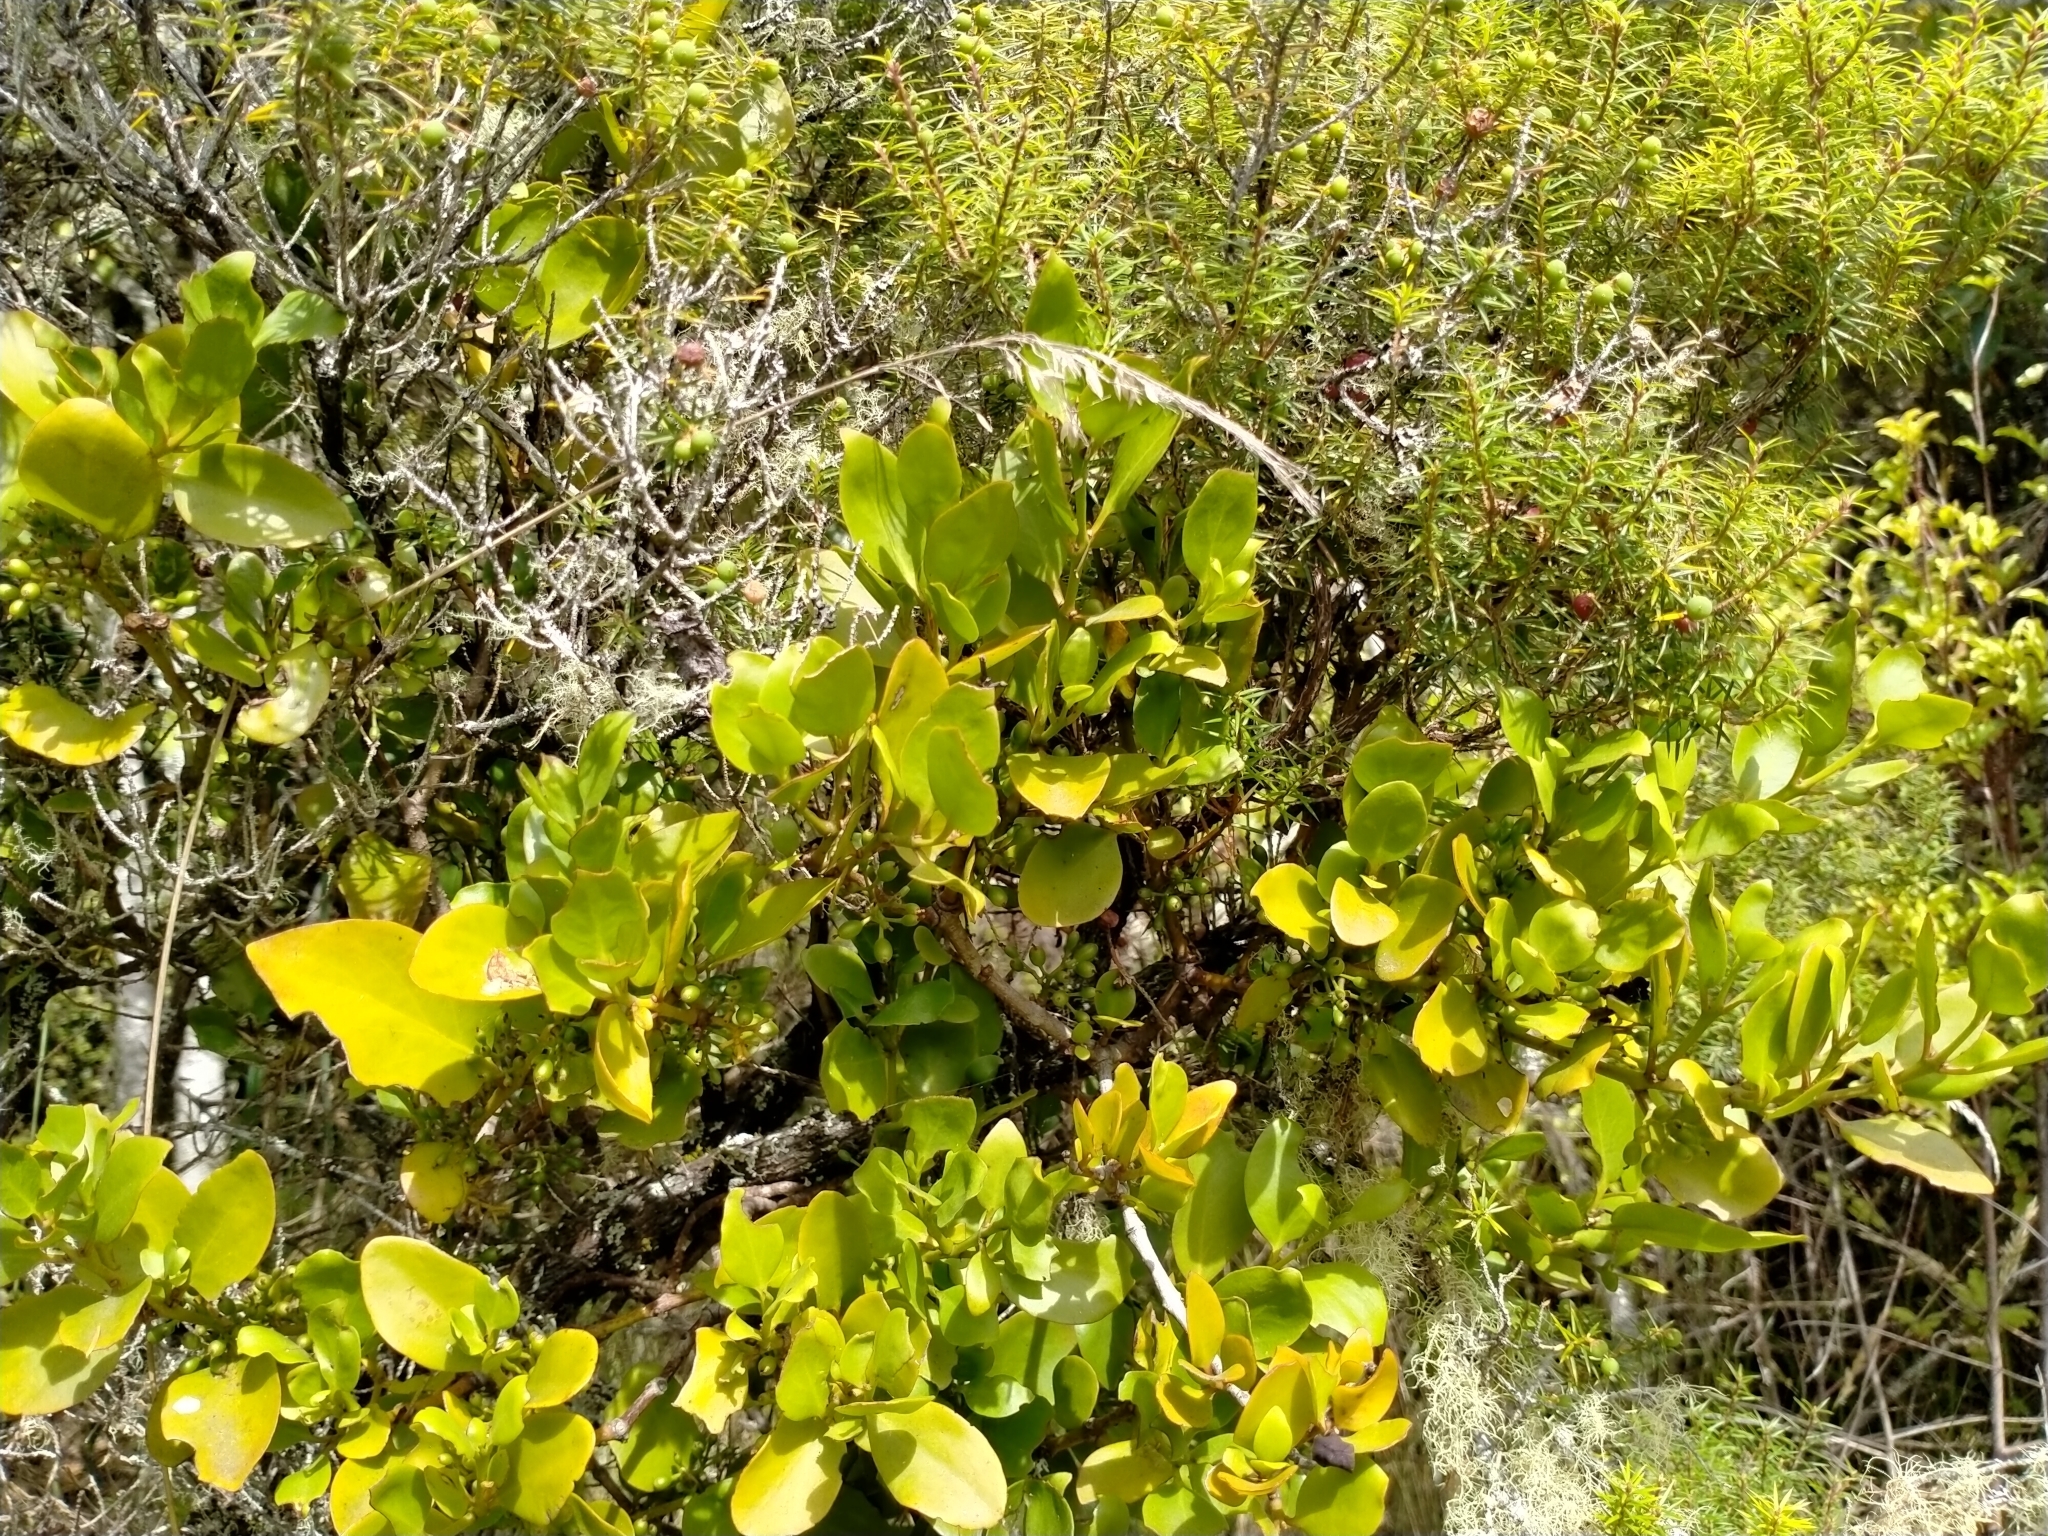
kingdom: Plantae
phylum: Tracheophyta
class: Magnoliopsida
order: Santalales
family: Loranthaceae
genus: Ileostylus
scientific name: Ileostylus micranthus
